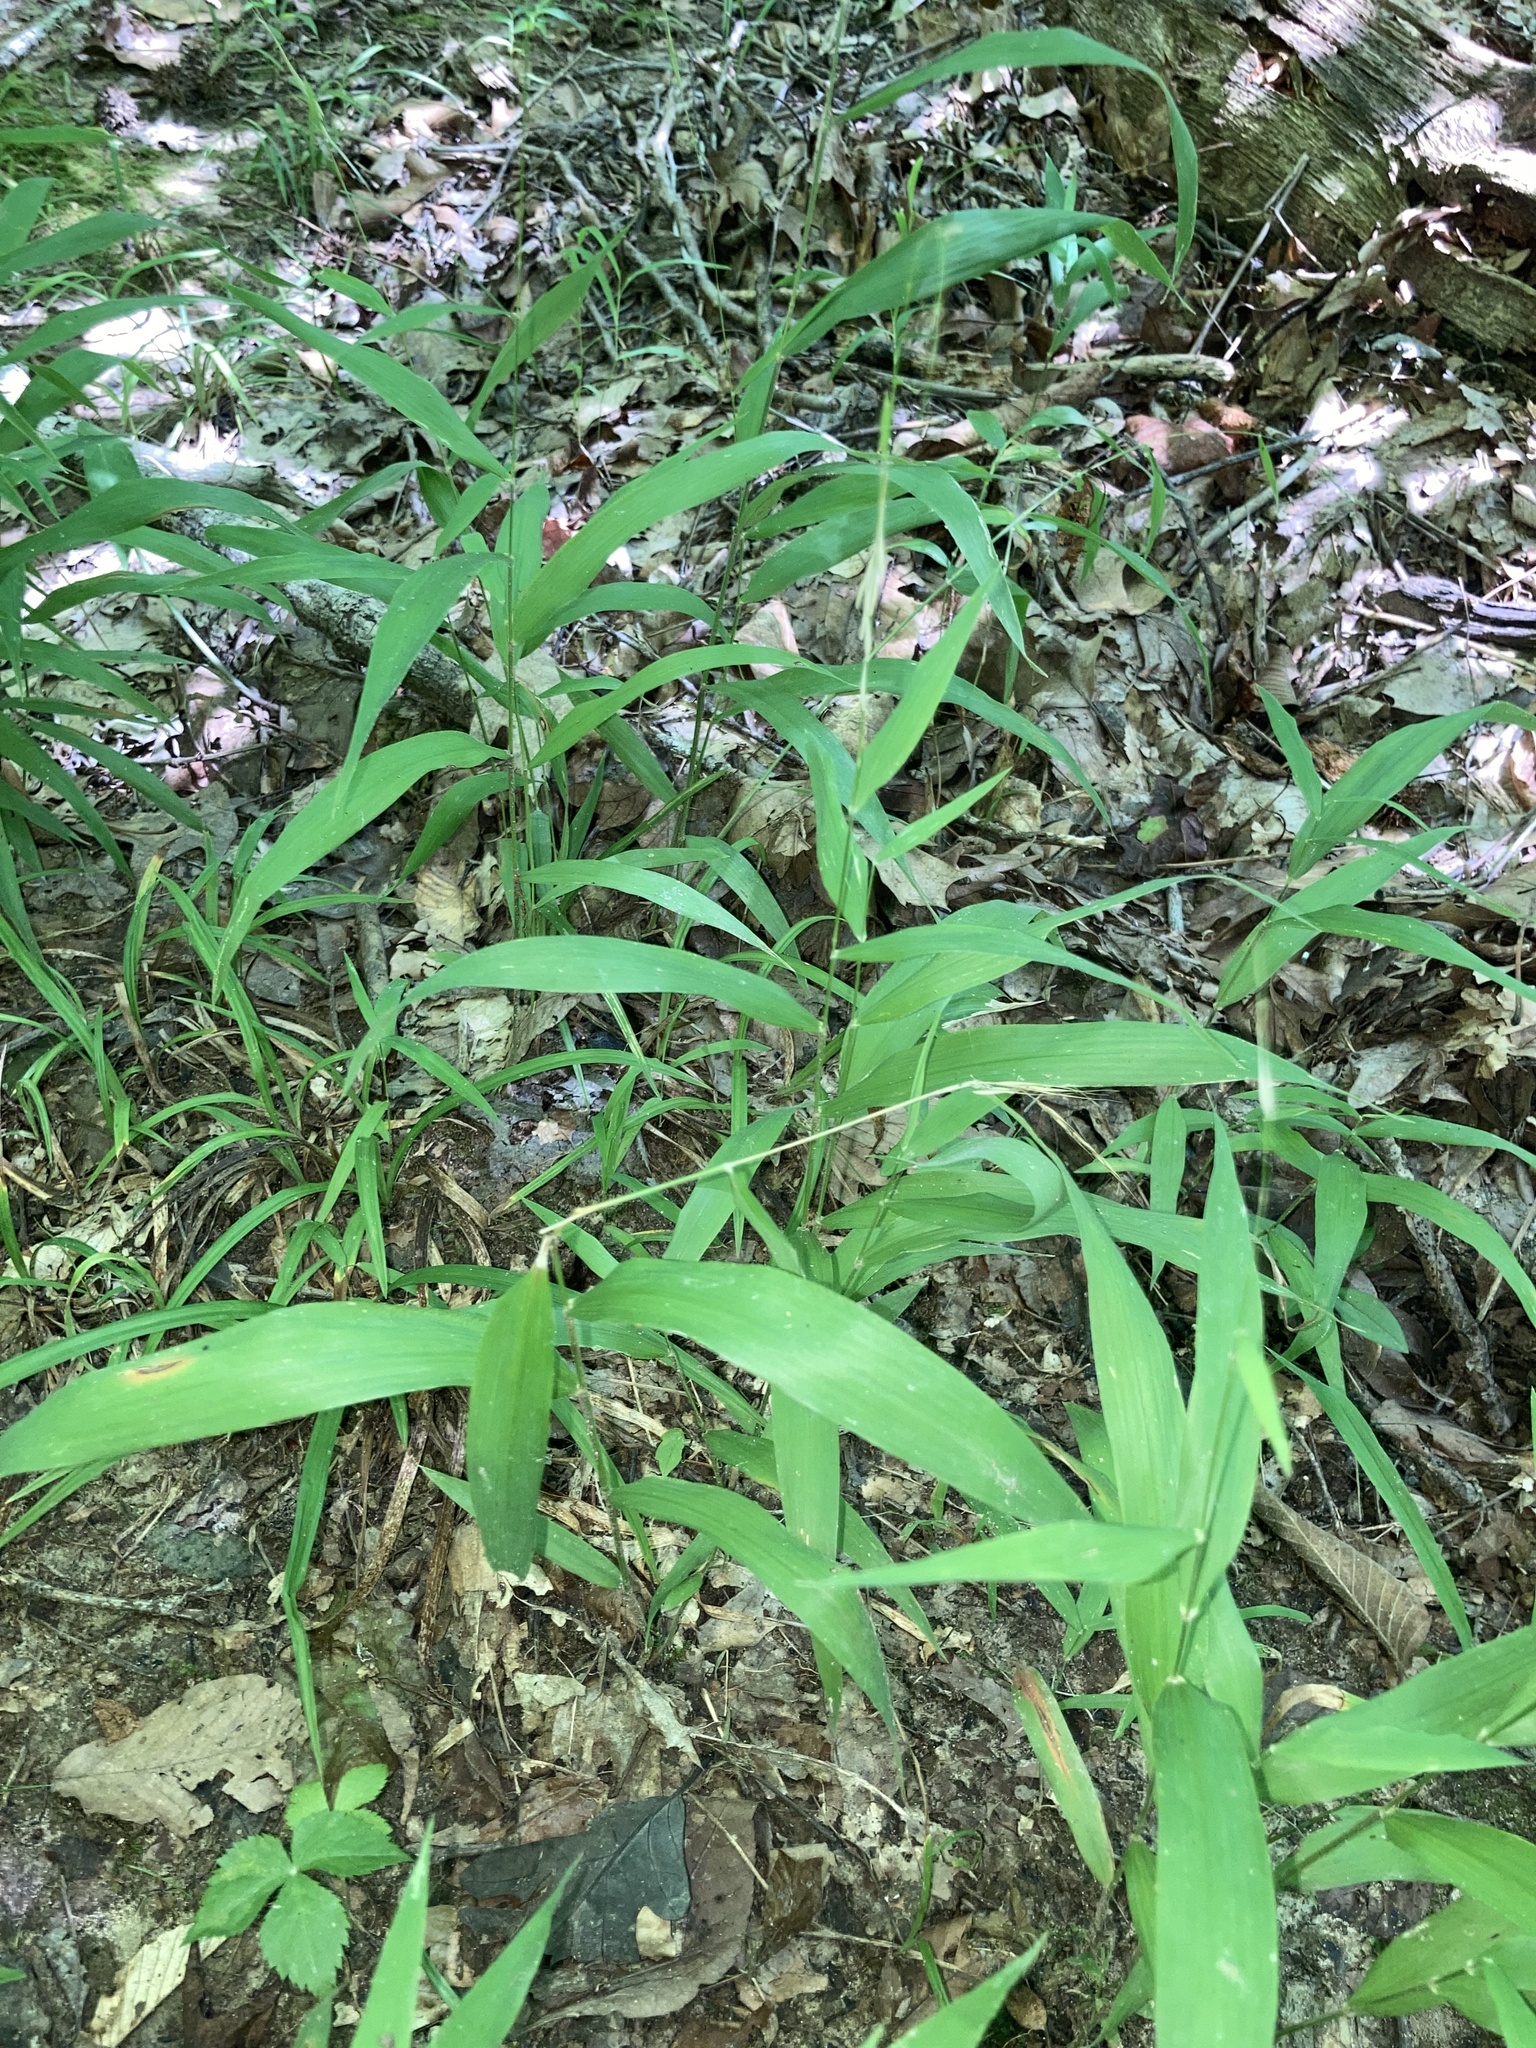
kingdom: Plantae
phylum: Tracheophyta
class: Liliopsida
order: Poales
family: Poaceae
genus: Brachyelytrum
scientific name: Brachyelytrum erectum
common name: Bearded shorthusk
